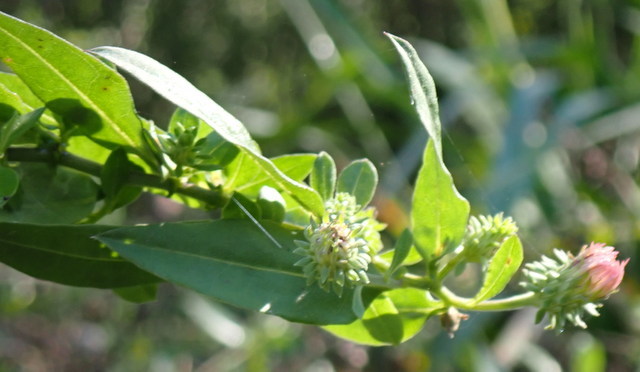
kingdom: Plantae
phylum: Tracheophyta
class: Magnoliopsida
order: Asterales
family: Asteraceae
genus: Ampelaster
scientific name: Ampelaster carolinianus
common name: Climbing aster
